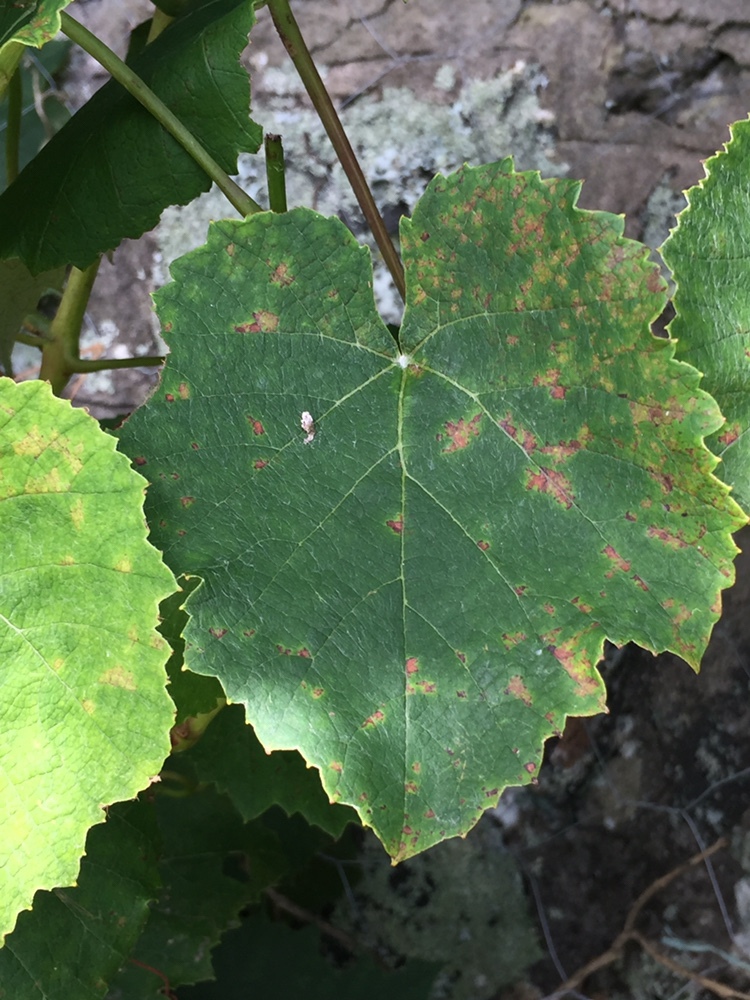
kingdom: Chromista
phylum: Oomycota
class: Peronosporea
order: Peronosporales
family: Peronosporaceae
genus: Plasmopara
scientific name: Plasmopara viticola
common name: Grapevine downy mildew
